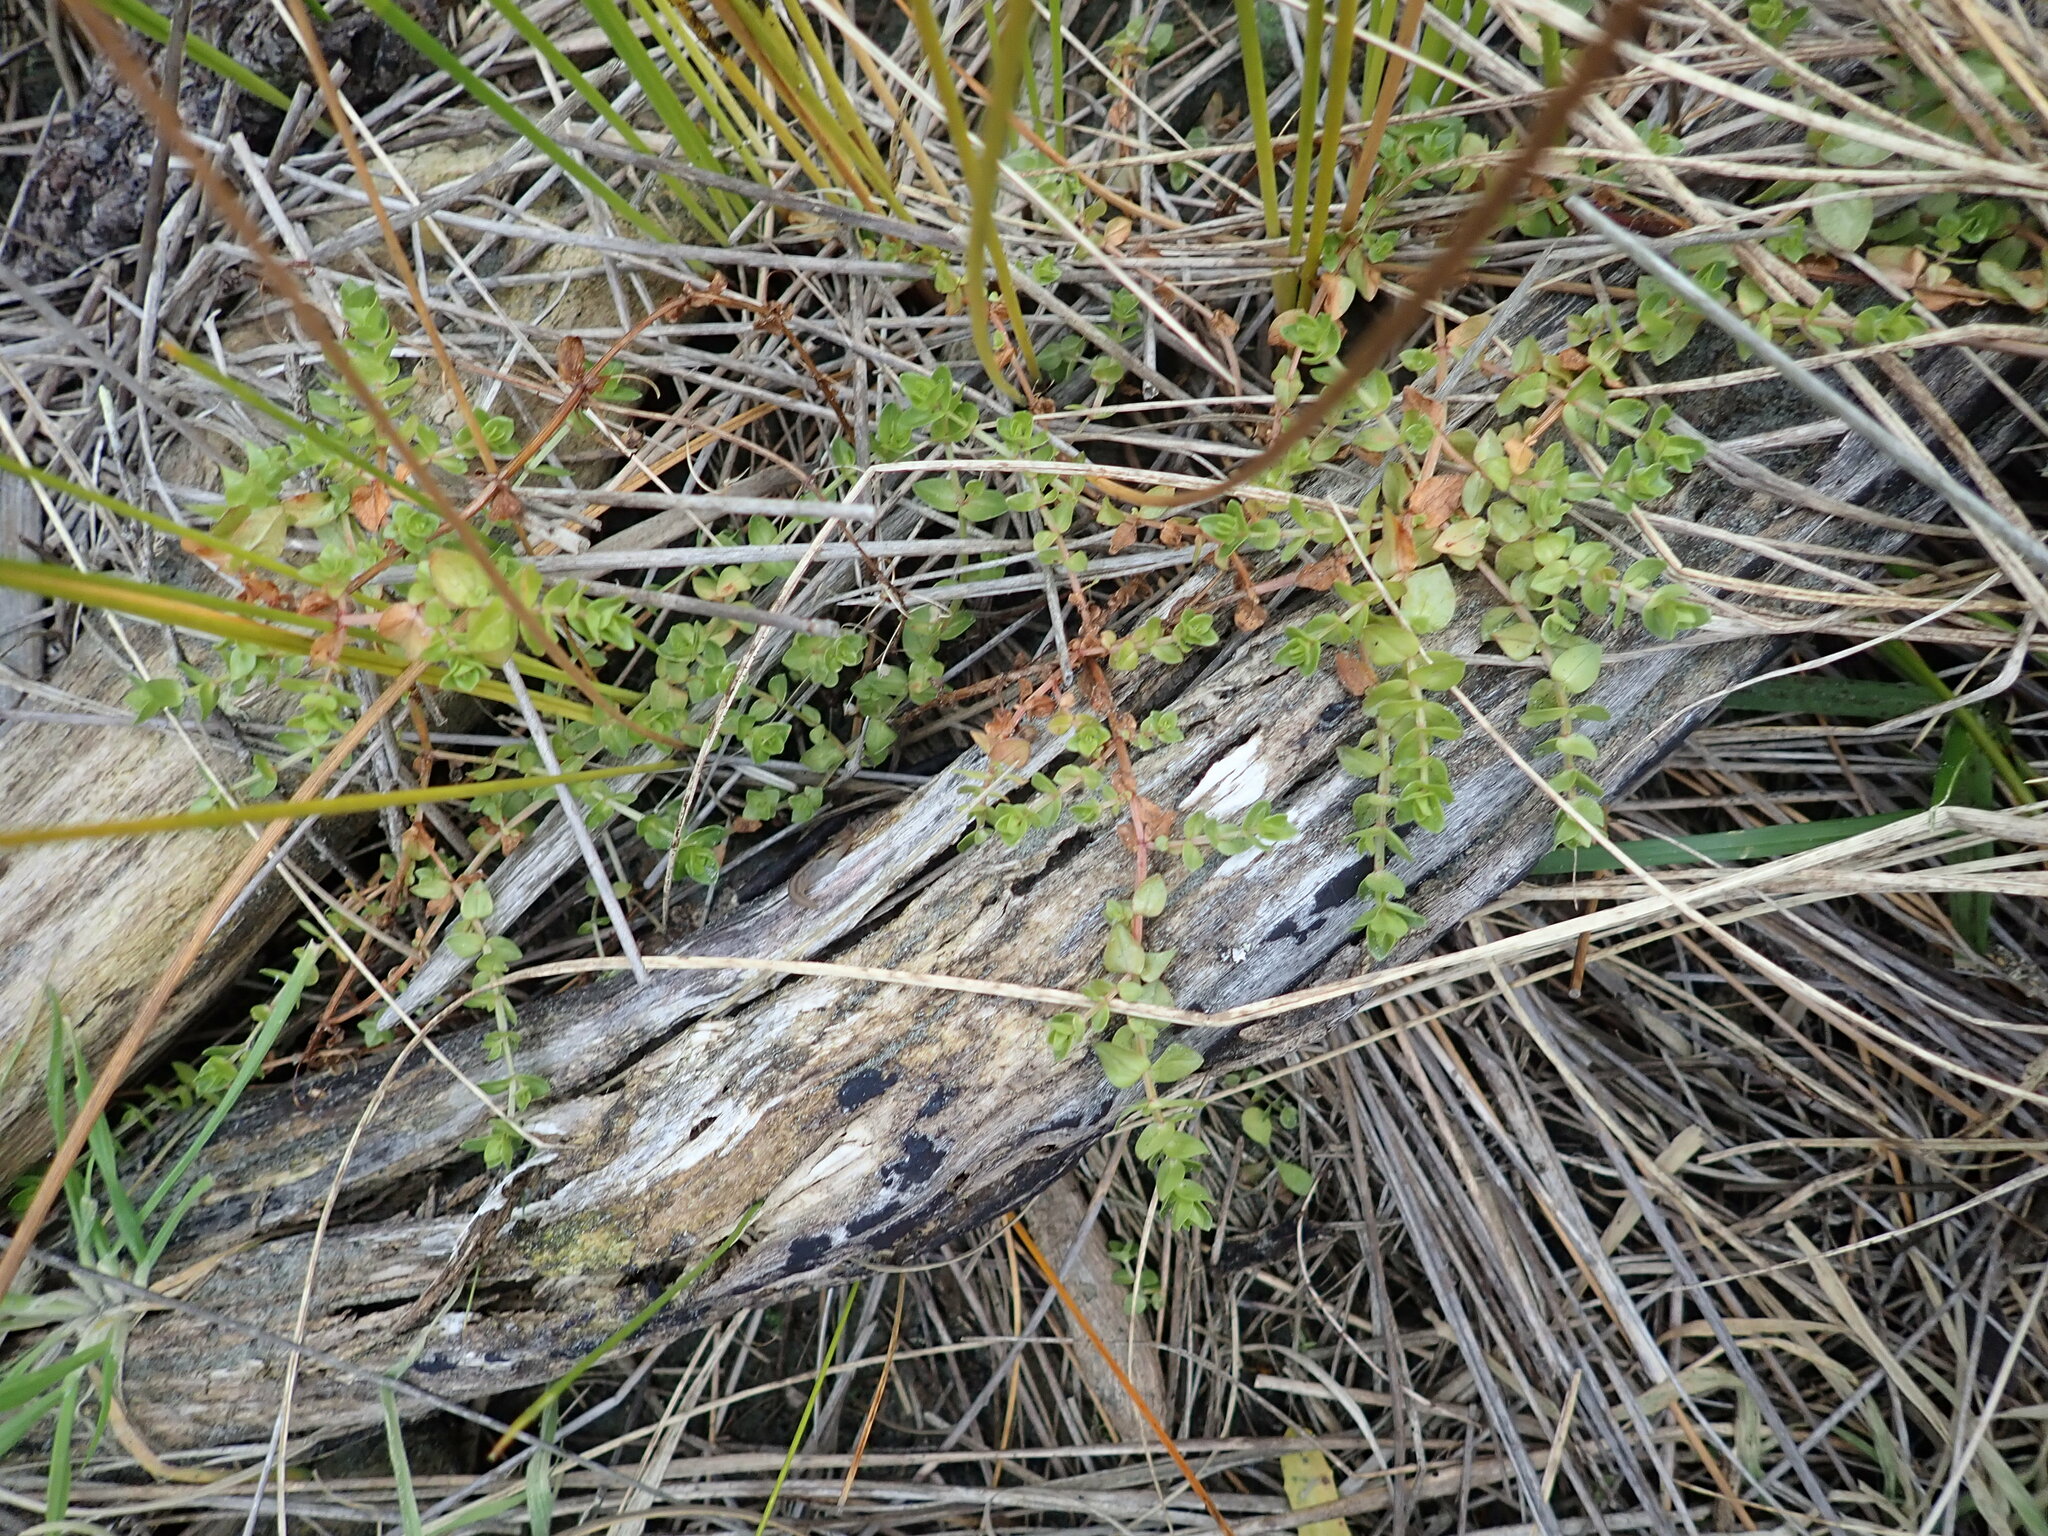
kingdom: Plantae
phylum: Tracheophyta
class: Magnoliopsida
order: Ericales
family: Primulaceae
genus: Lysimachia
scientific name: Lysimachia arvensis
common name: Scarlet pimpernel
